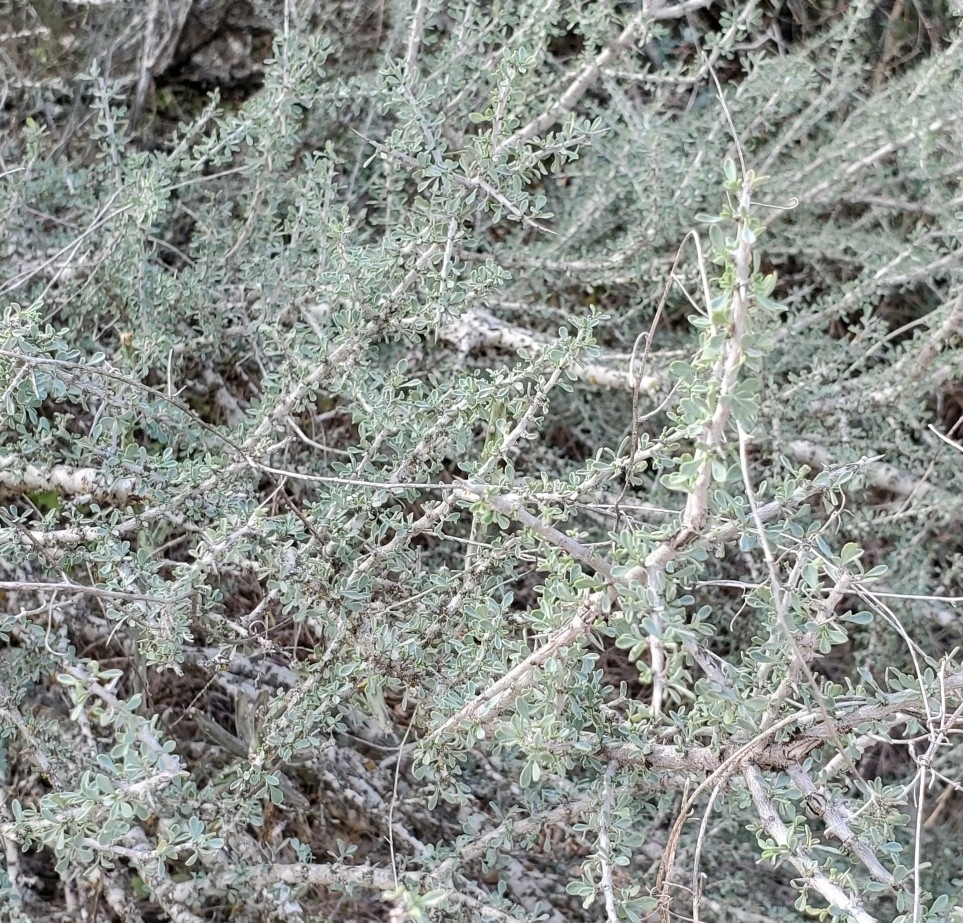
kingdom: Plantae
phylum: Tracheophyta
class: Magnoliopsida
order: Rosales
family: Rhamnaceae
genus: Condalia
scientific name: Condalia spathulata
